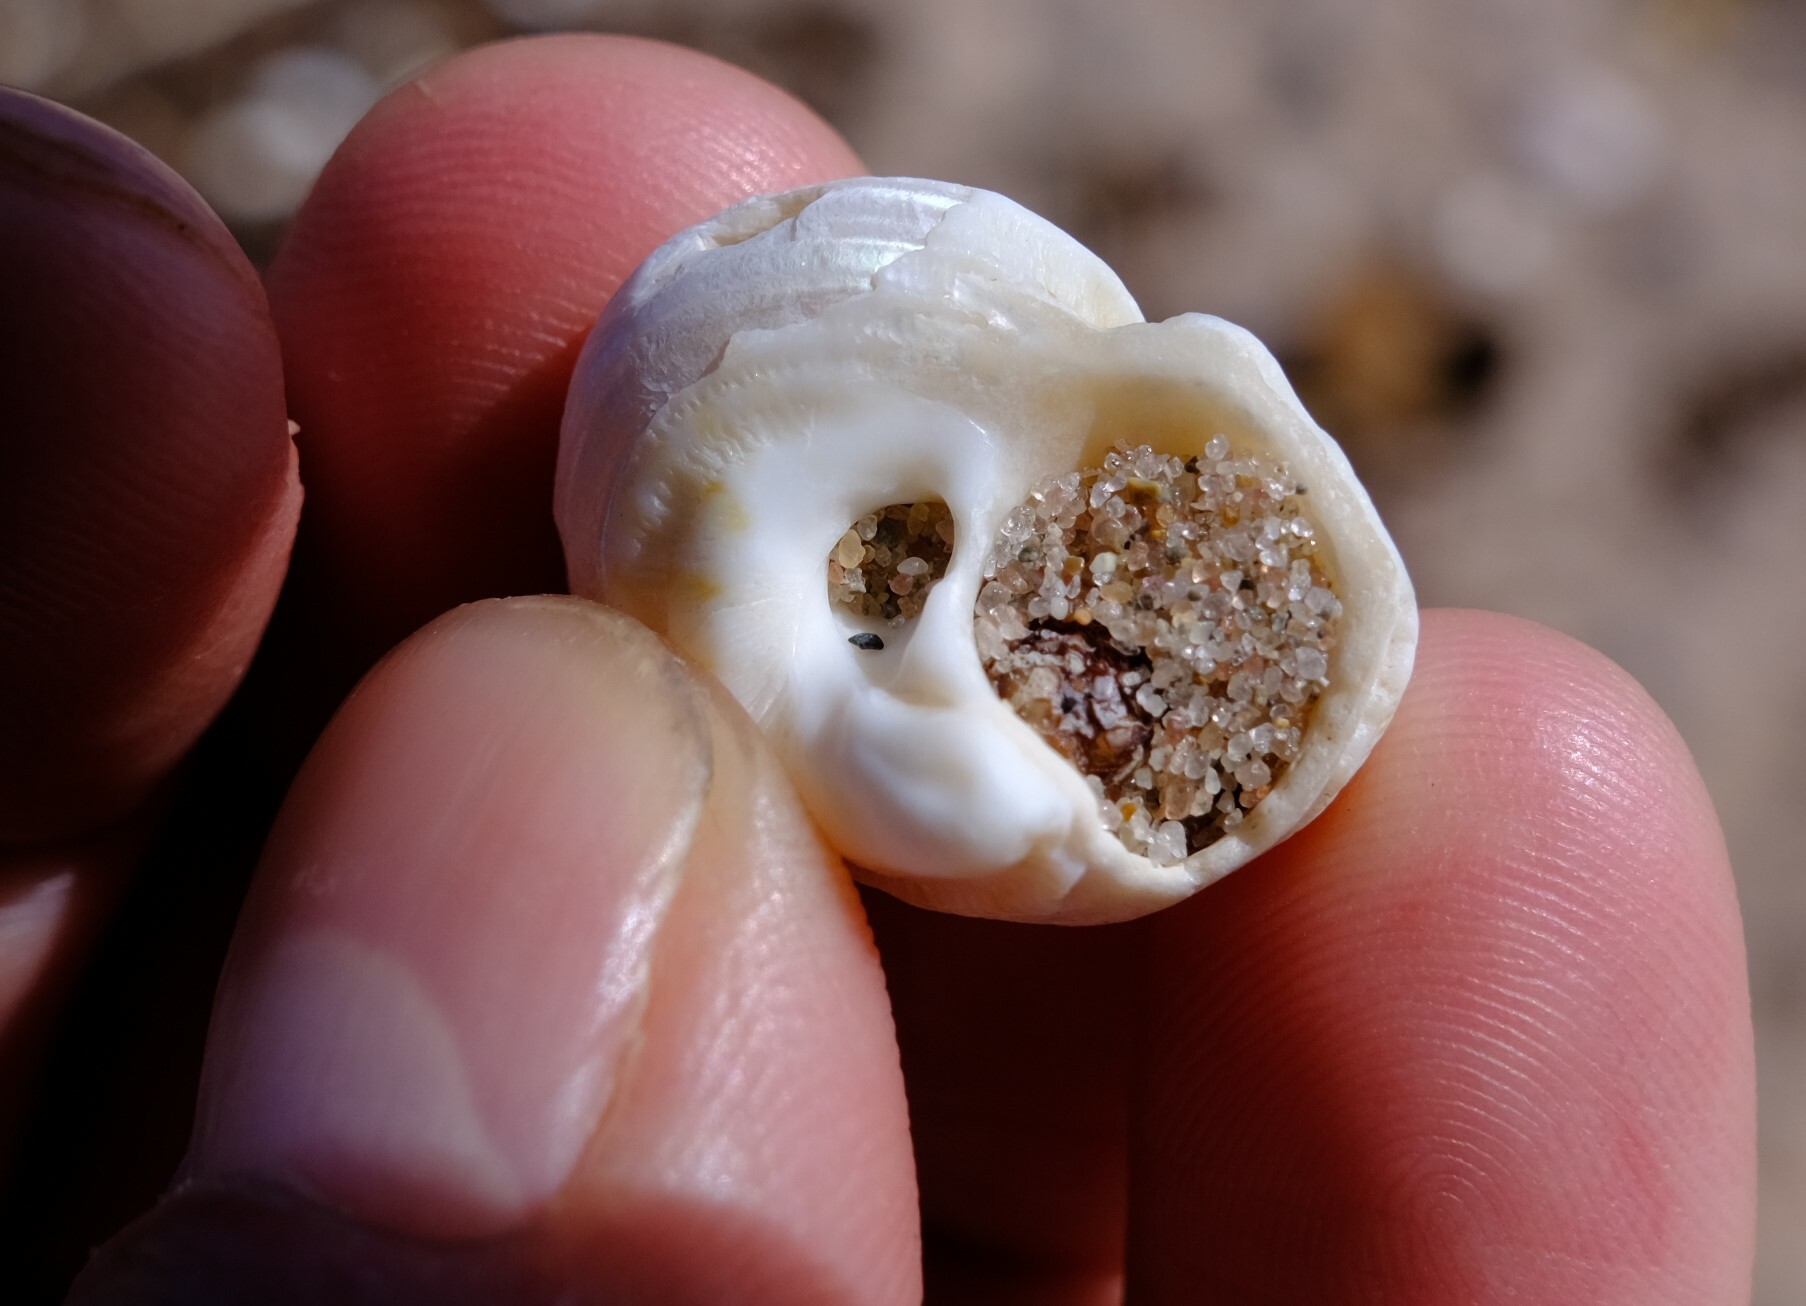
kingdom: Animalia
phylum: Mollusca
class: Gastropoda
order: Trochida
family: Turbinidae
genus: Lunella
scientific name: Lunella torquata
